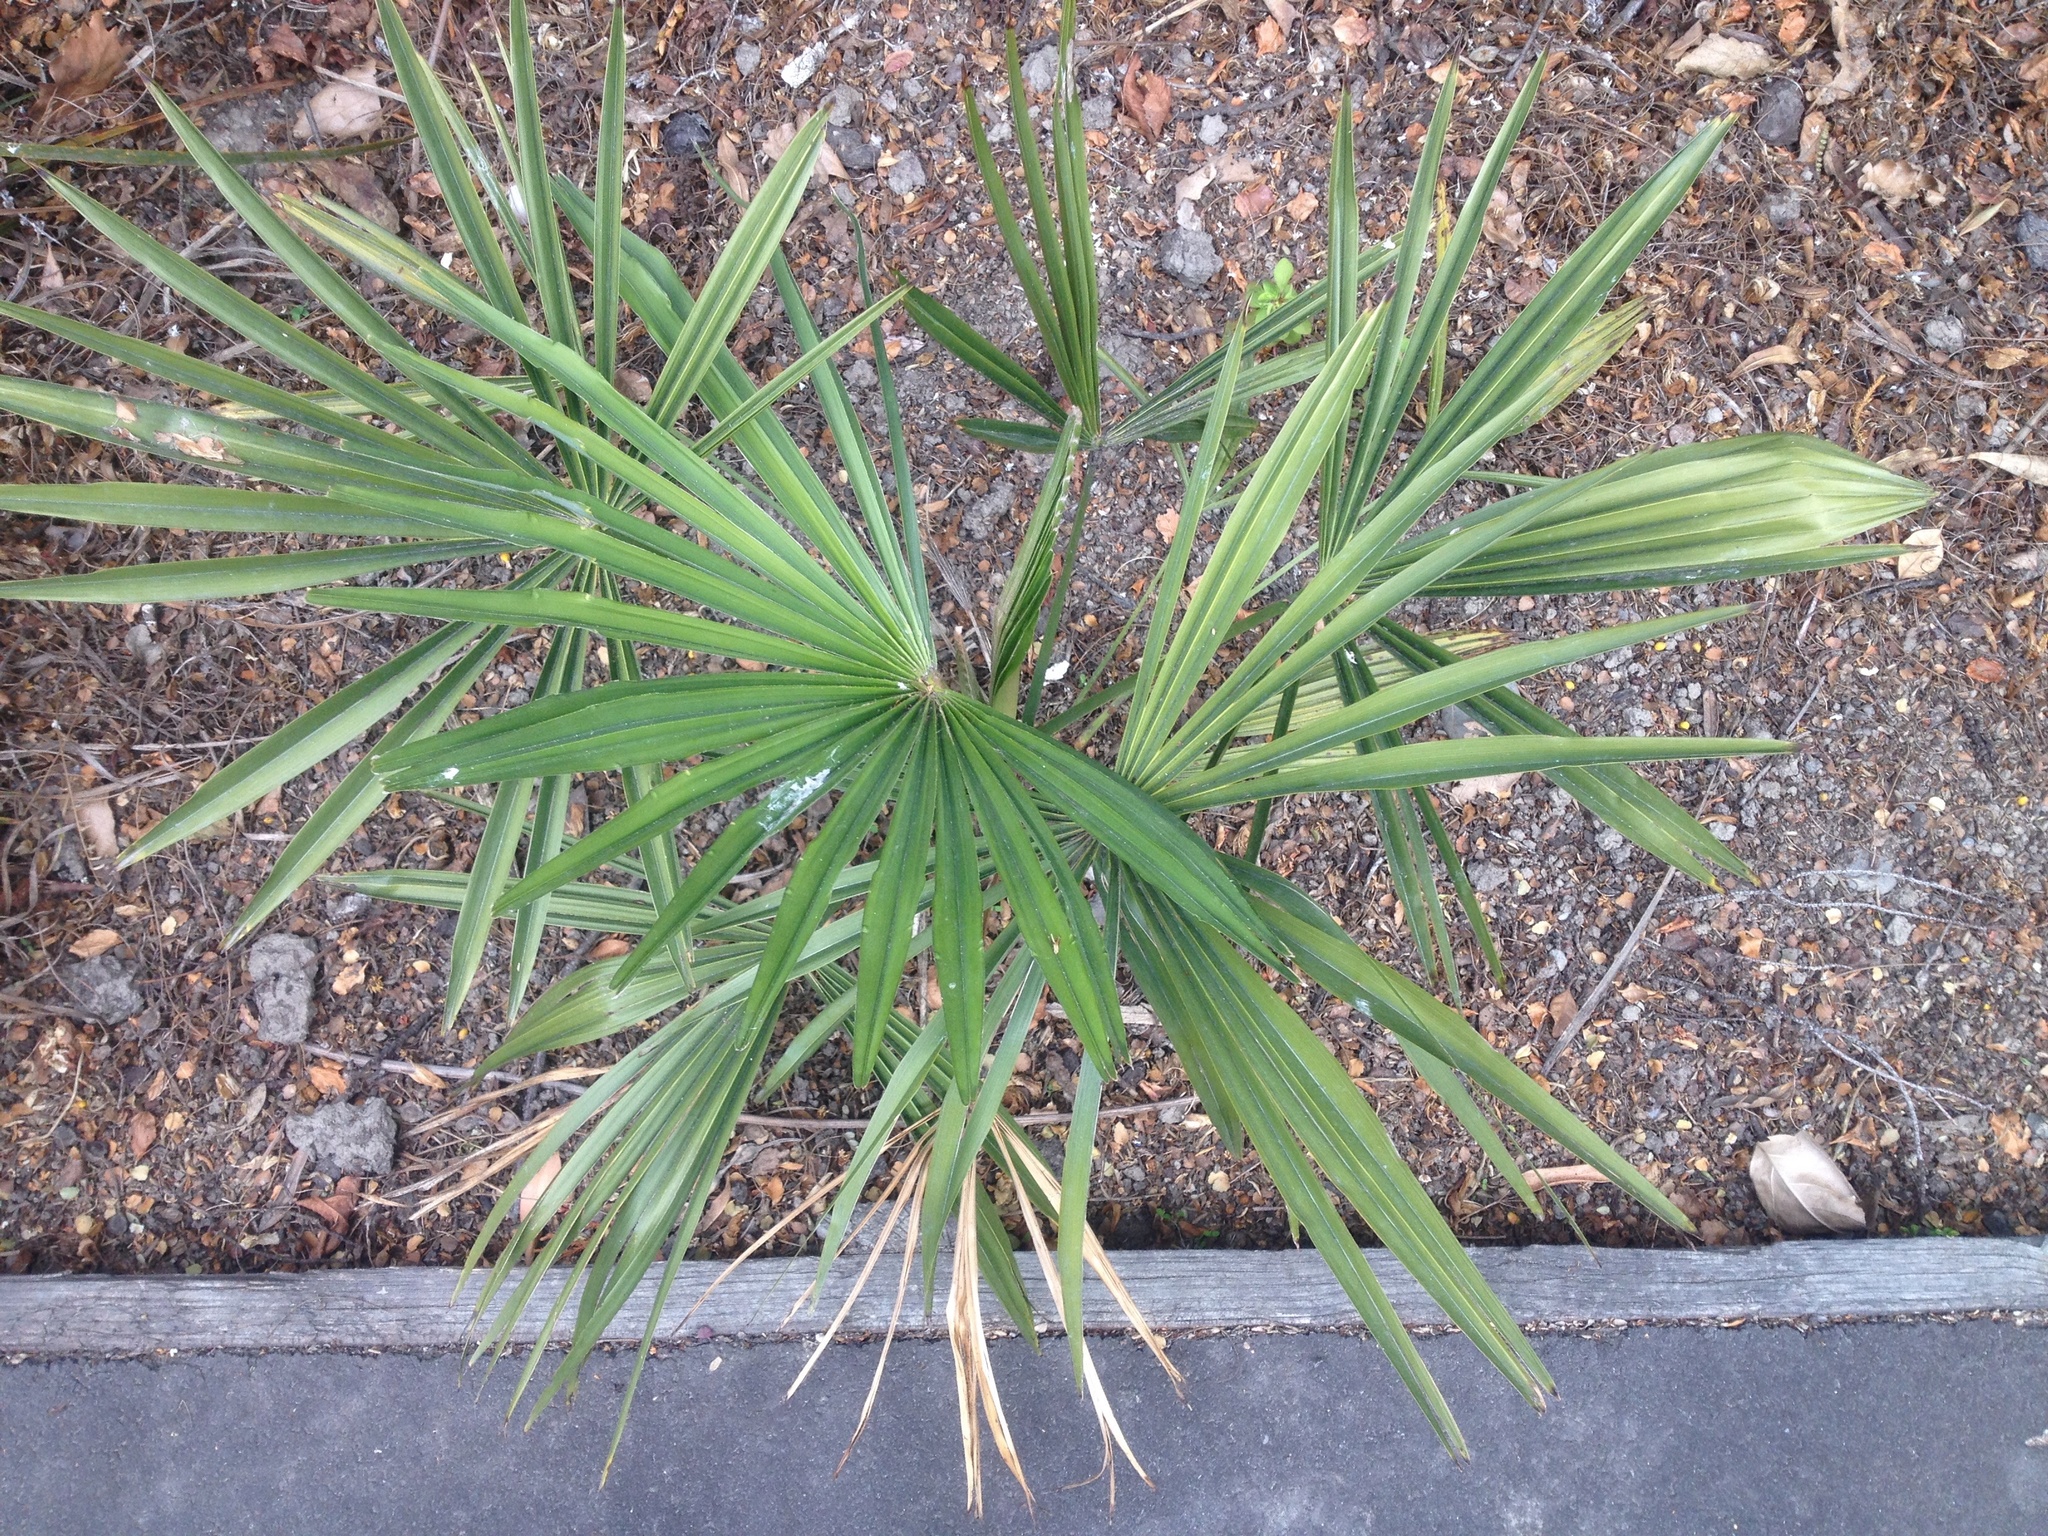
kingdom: Plantae
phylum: Tracheophyta
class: Liliopsida
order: Arecales
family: Arecaceae
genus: Trachycarpus
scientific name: Trachycarpus fortunei
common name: Chusan palm
